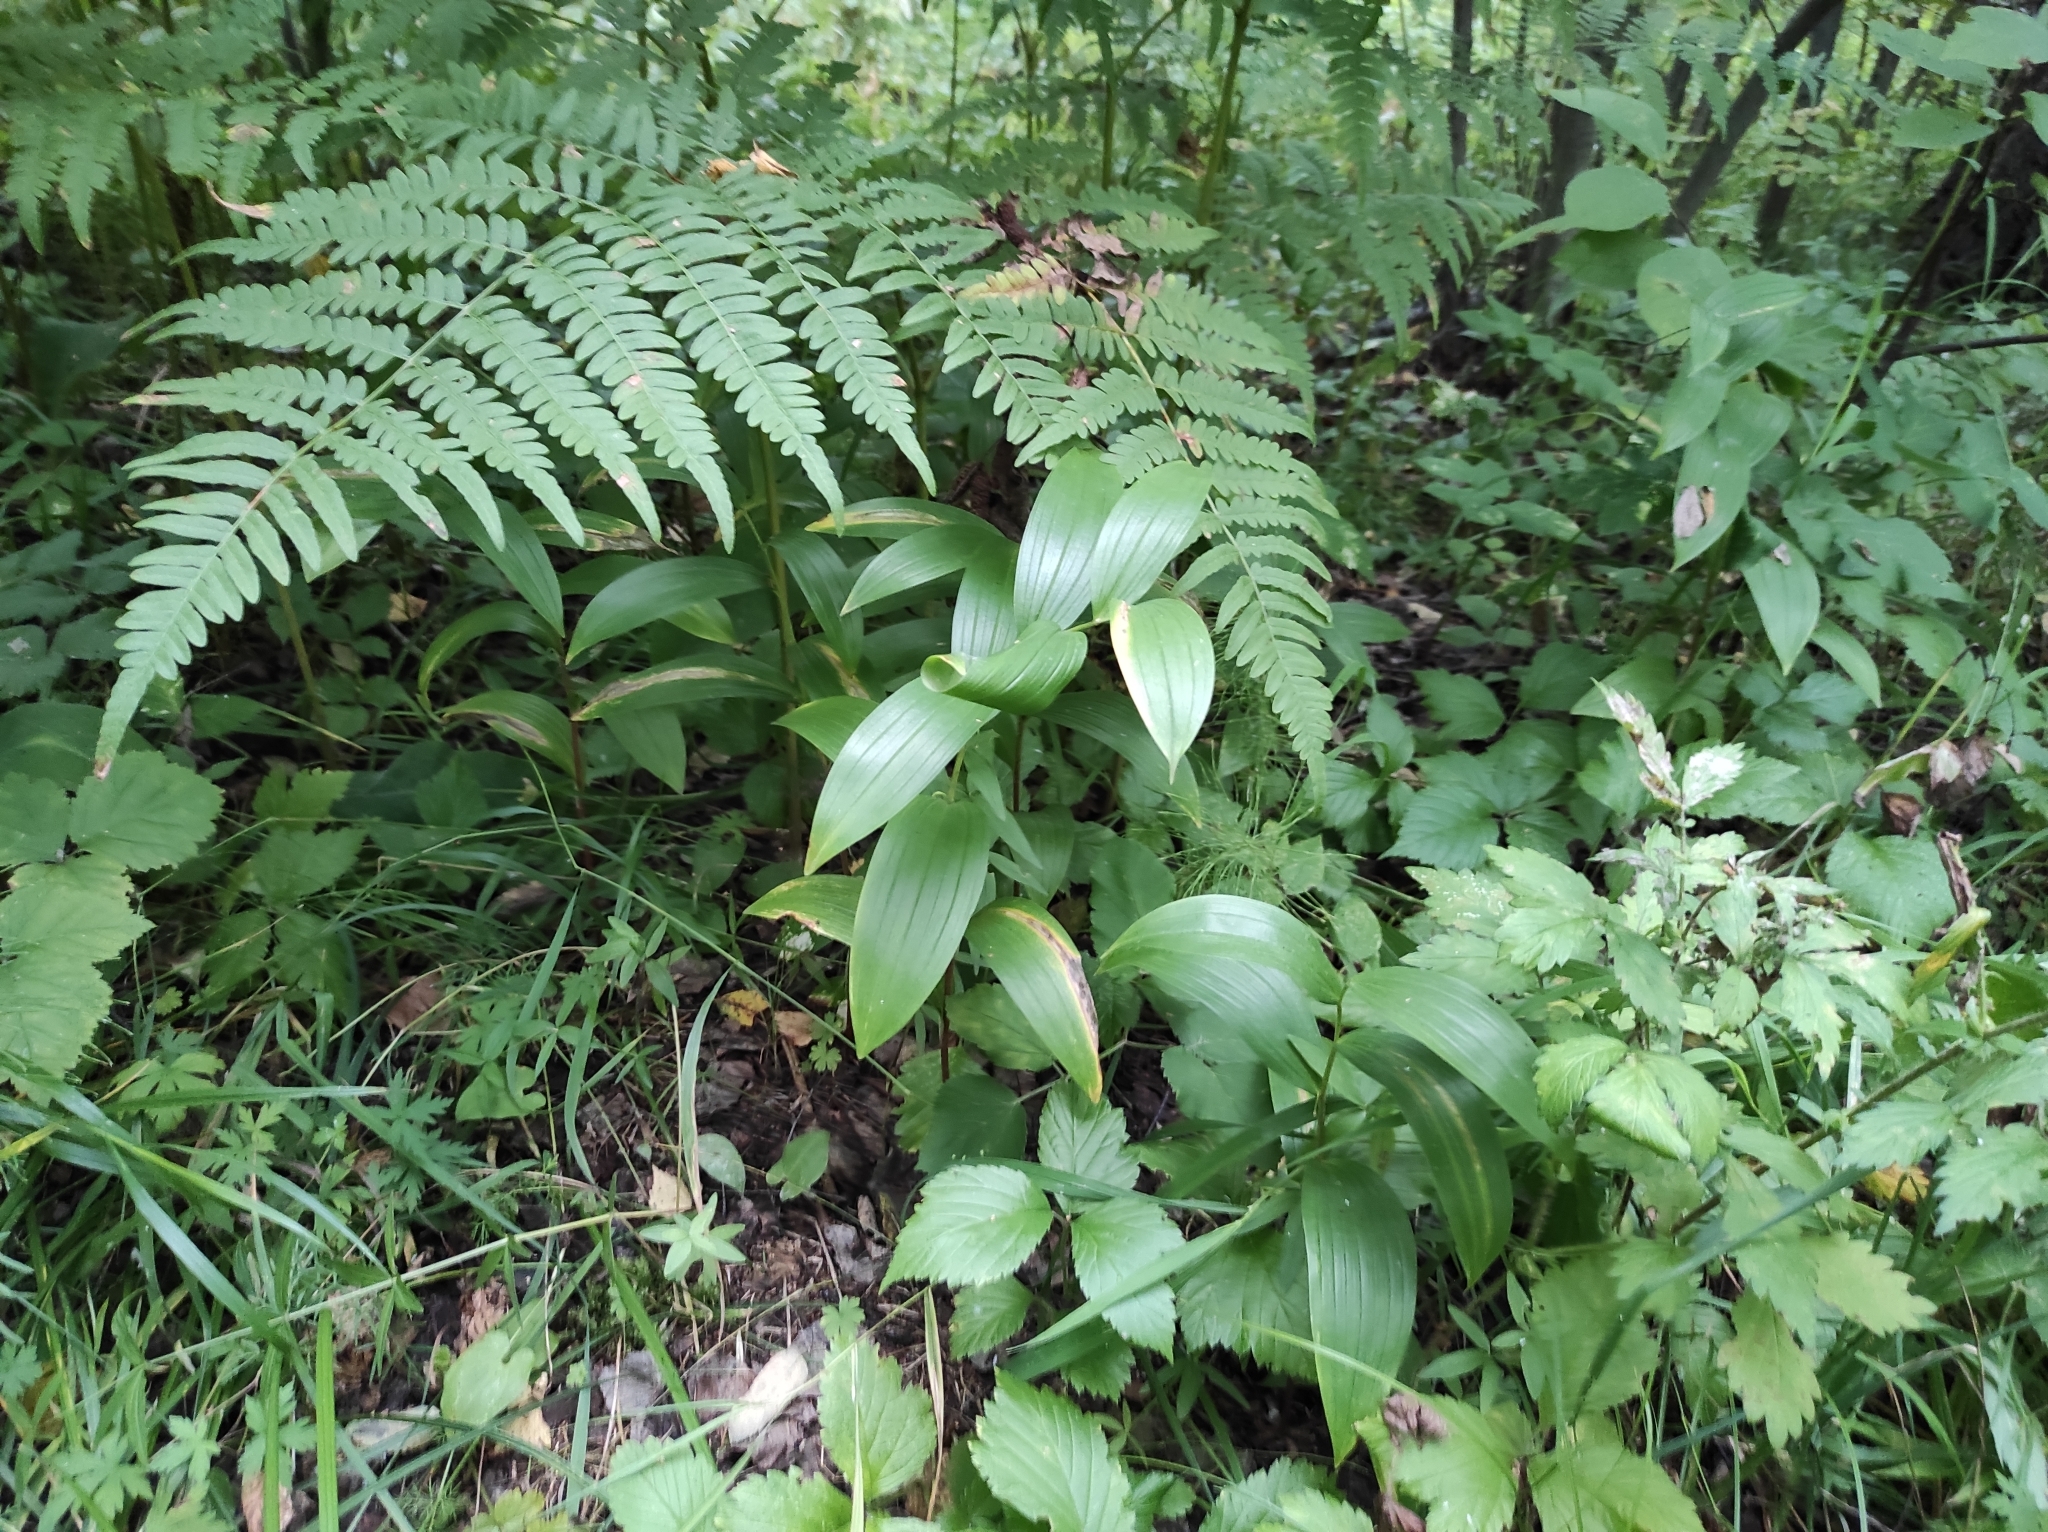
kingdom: Plantae
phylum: Tracheophyta
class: Polypodiopsida
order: Polypodiales
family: Dennstaedtiaceae
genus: Pteridium
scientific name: Pteridium aquilinum
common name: Bracken
